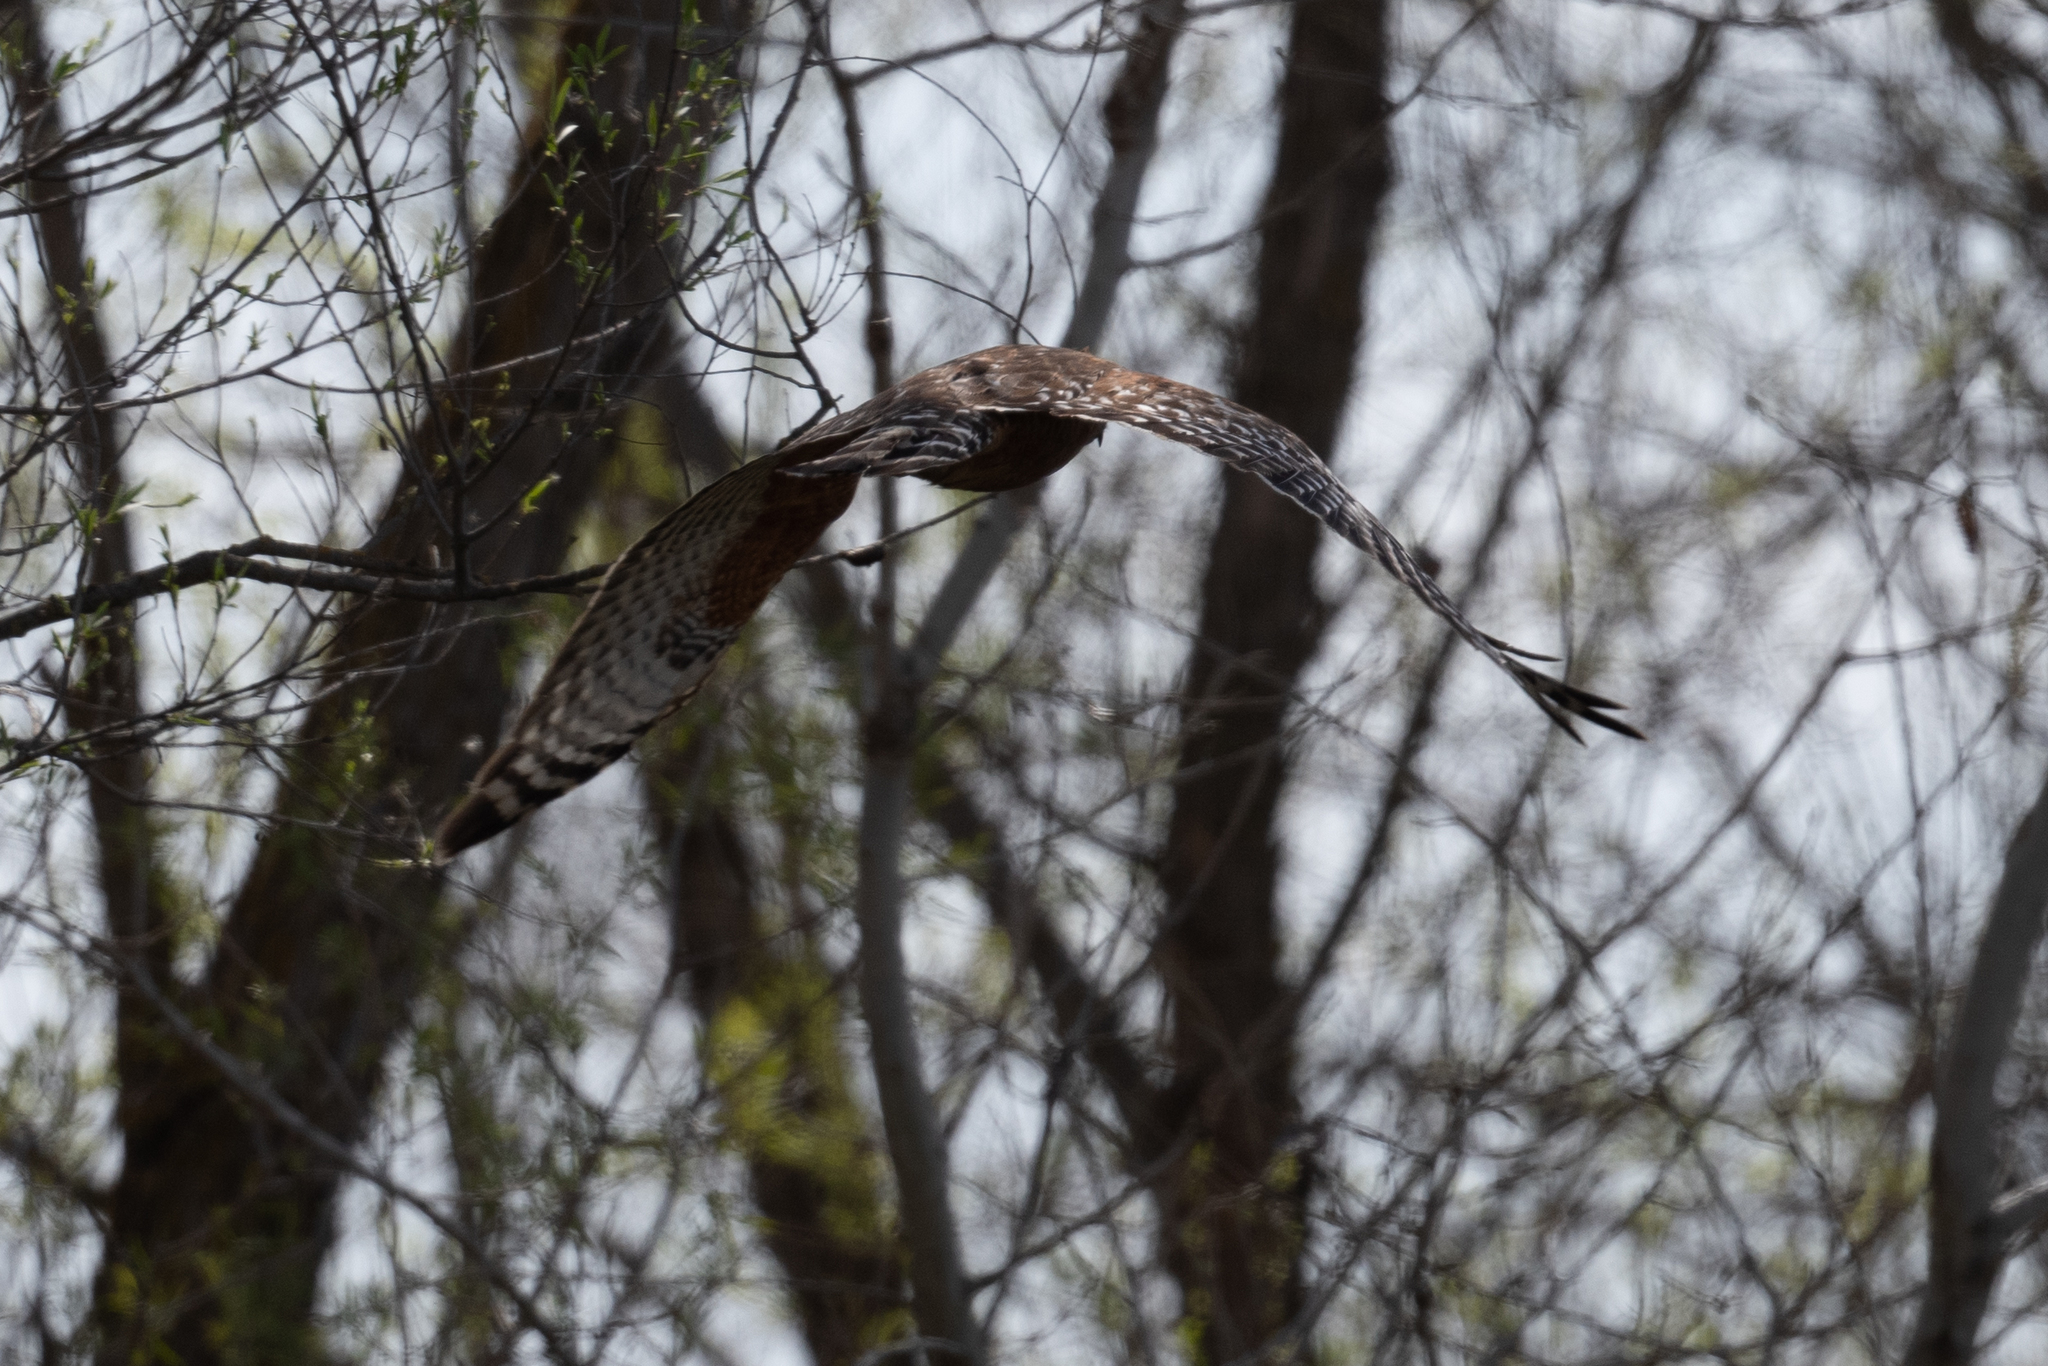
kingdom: Animalia
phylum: Chordata
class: Aves
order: Accipitriformes
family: Accipitridae
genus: Buteo
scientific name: Buteo lineatus
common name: Red-shouldered hawk
